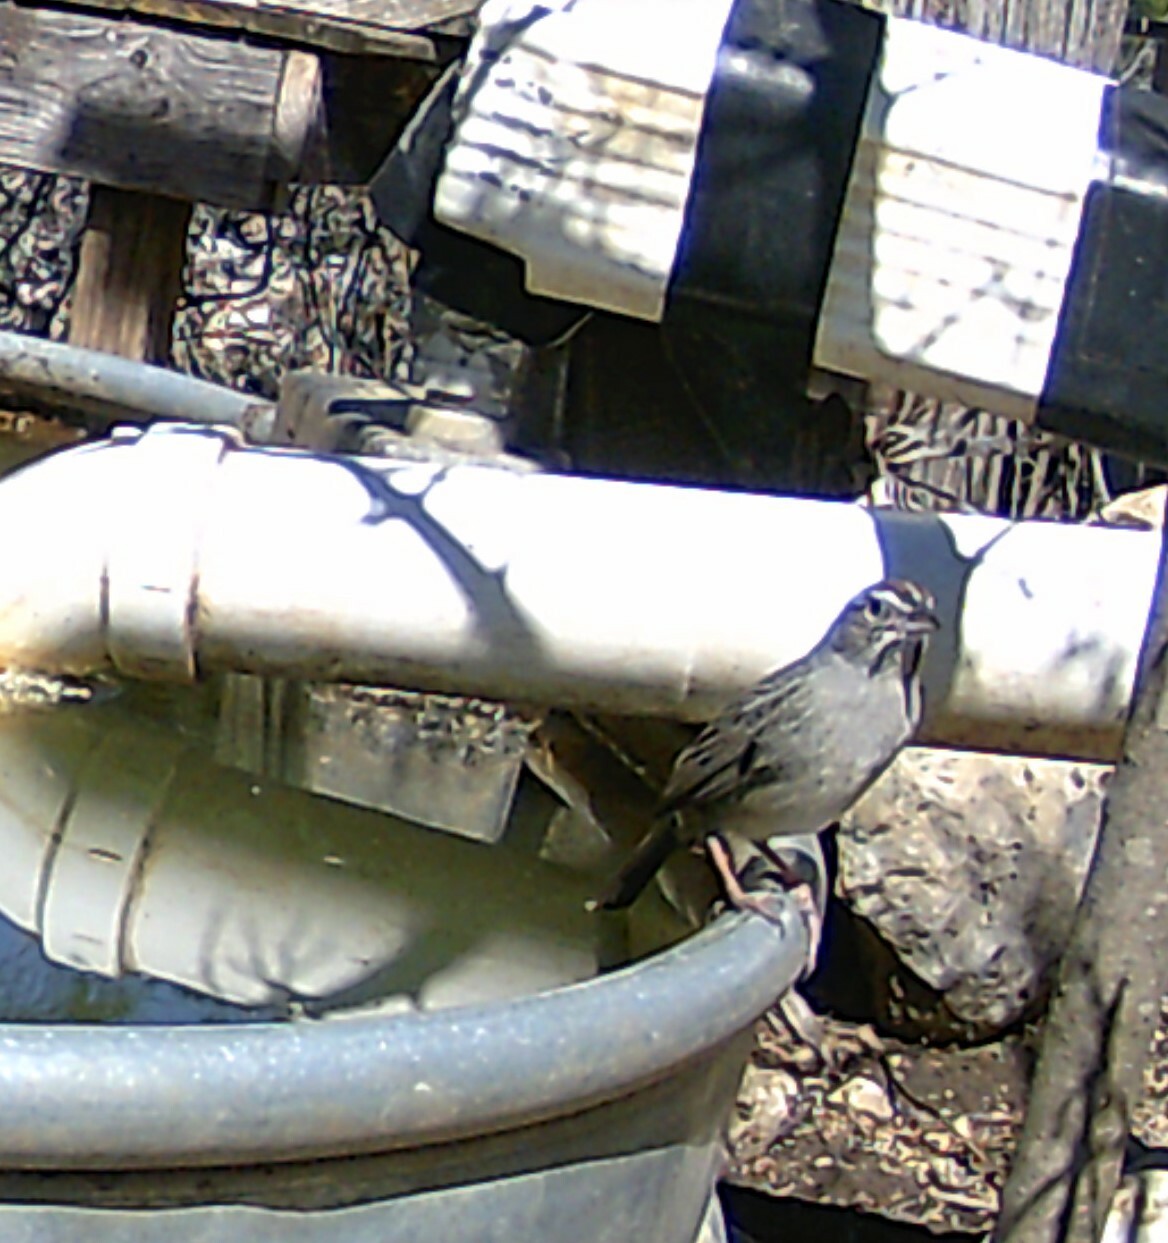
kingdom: Animalia
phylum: Chordata
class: Aves
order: Passeriformes
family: Passerellidae
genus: Aimophila
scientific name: Aimophila ruficeps
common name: Rufous-crowned sparrow
